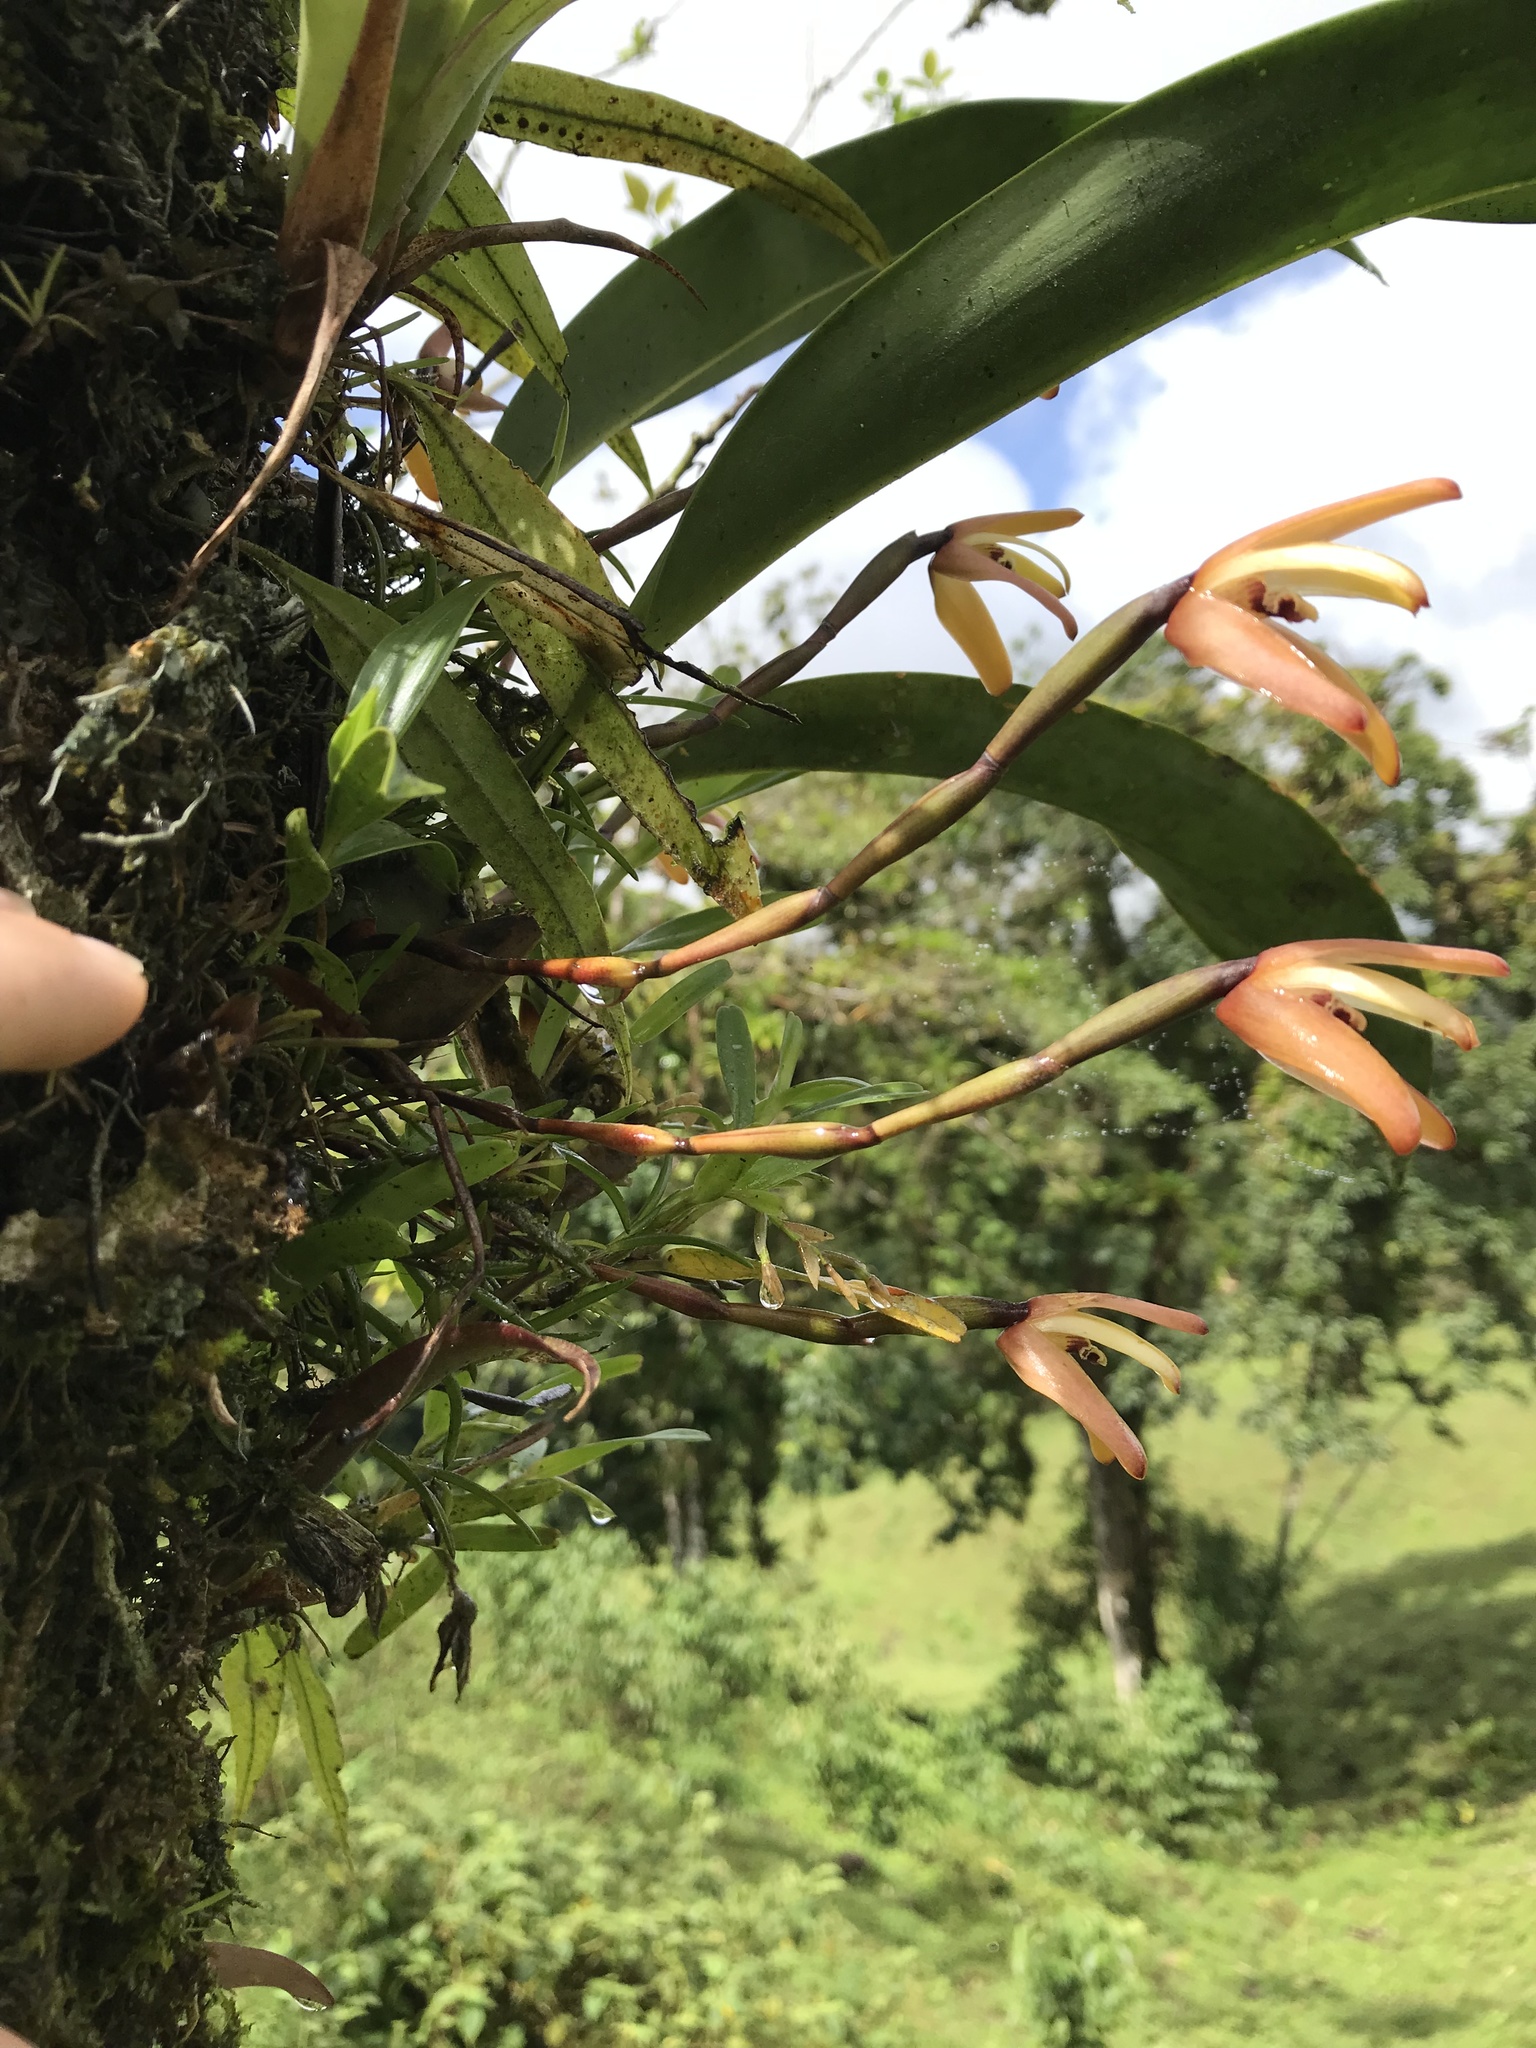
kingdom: Plantae
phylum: Tracheophyta
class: Liliopsida
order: Asparagales
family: Orchidaceae
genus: Maxillaria
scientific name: Maxillaria porrecta
